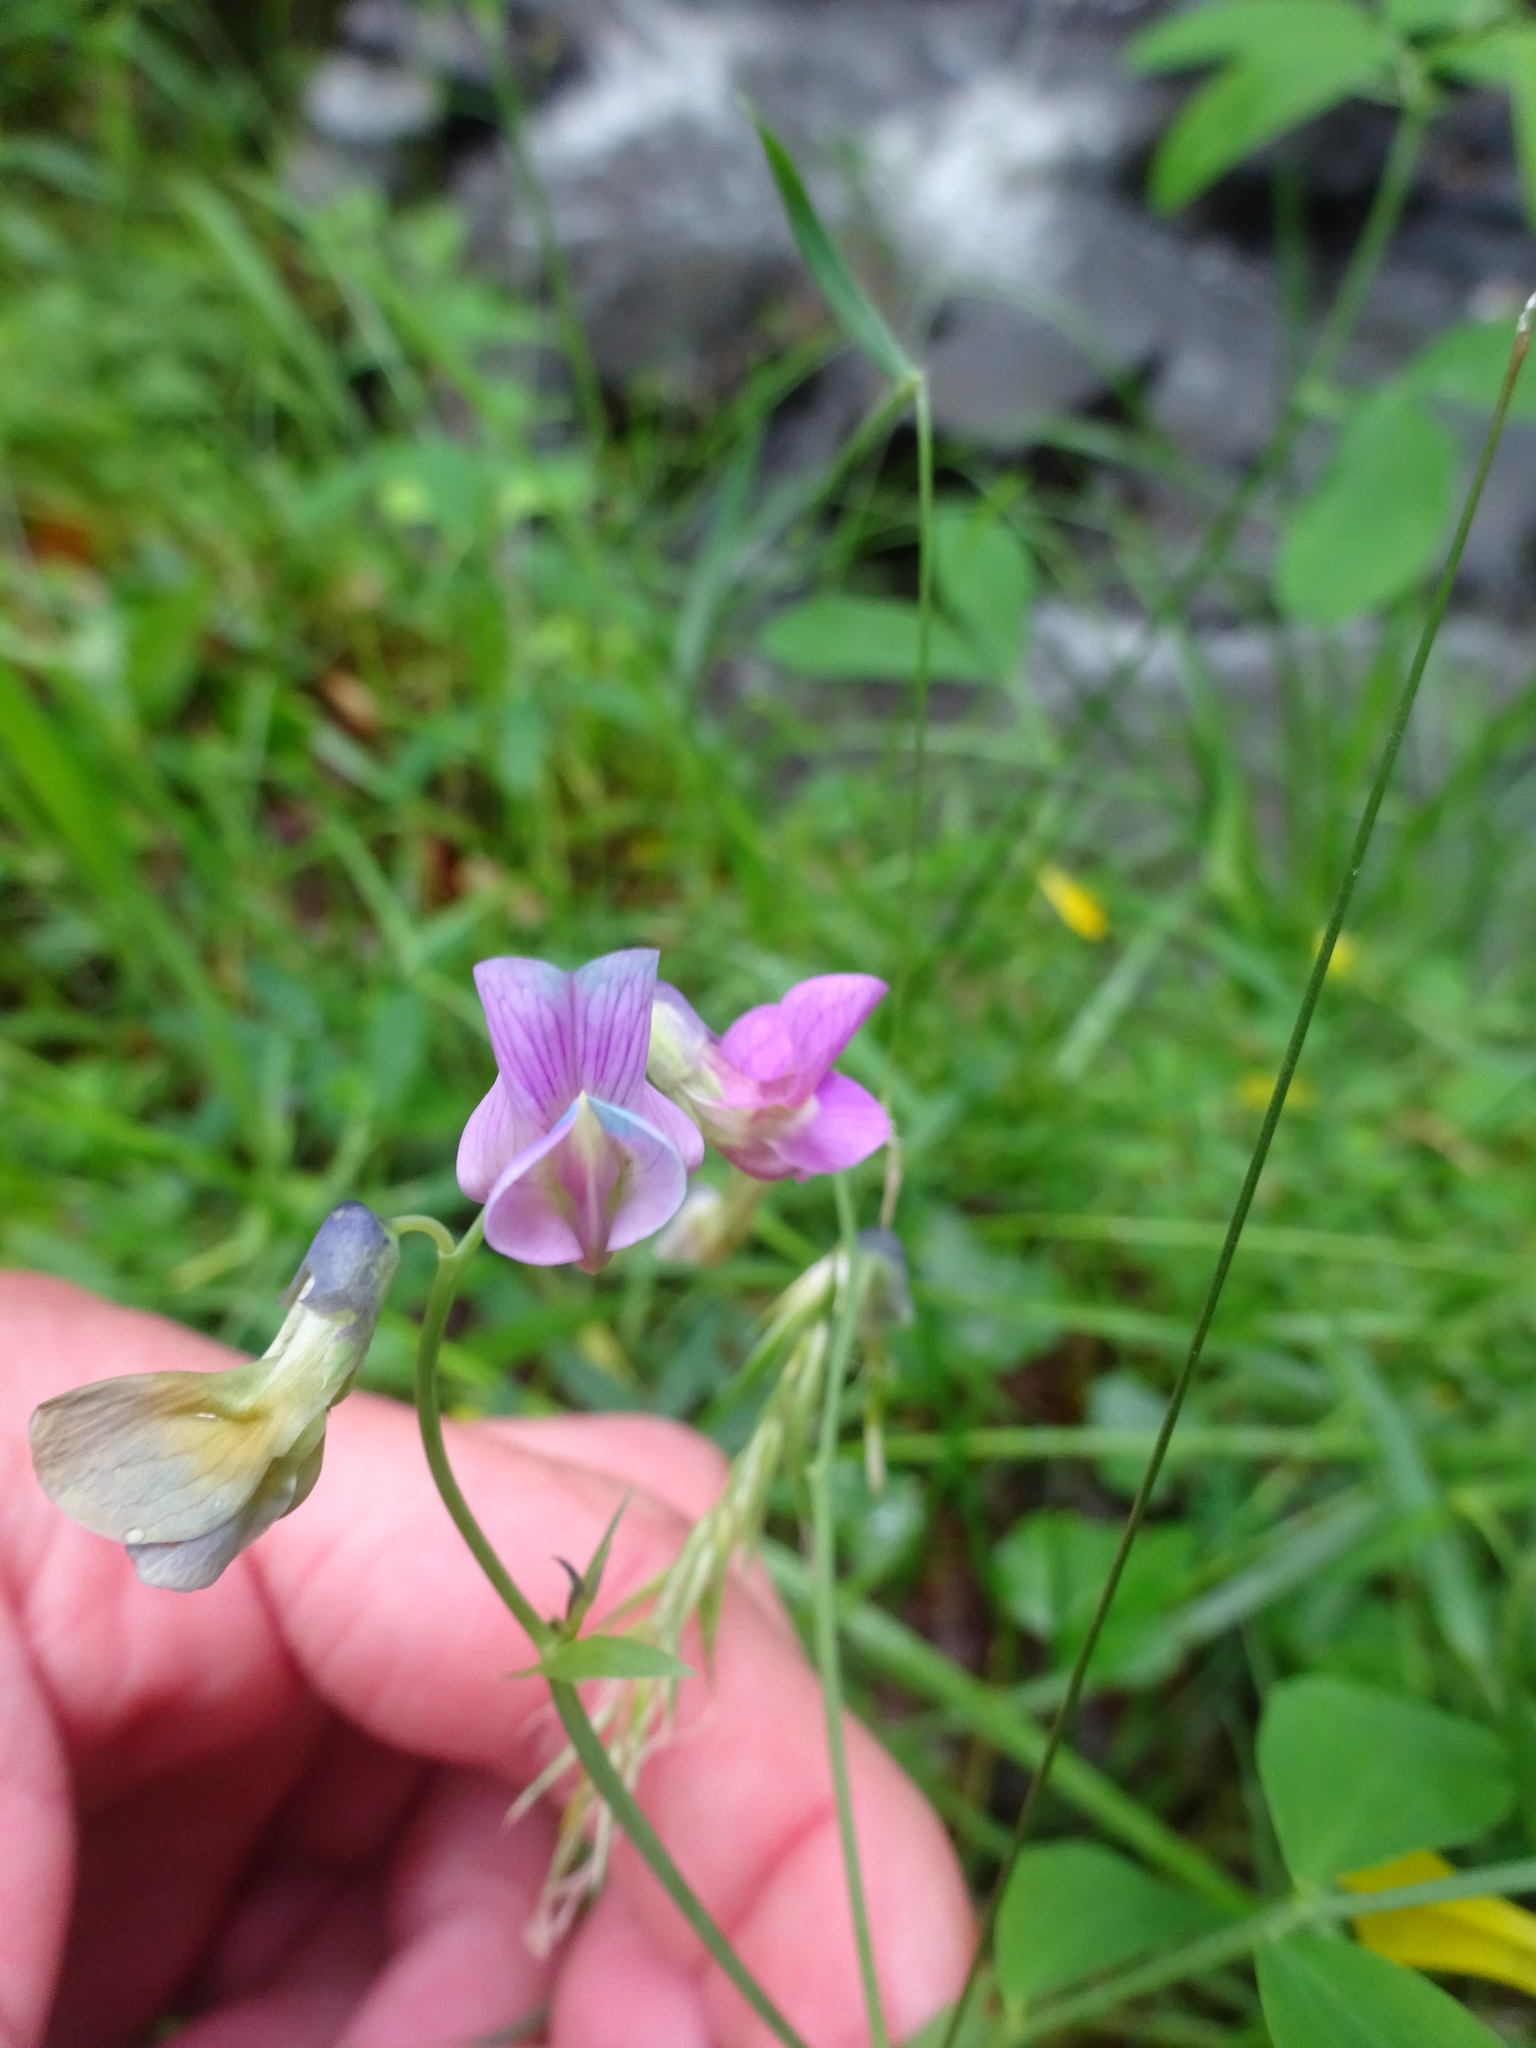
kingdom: Plantae
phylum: Tracheophyta
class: Magnoliopsida
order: Fabales
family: Fabaceae
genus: Lathyrus
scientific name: Lathyrus linifolius
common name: Bitter-vetch
